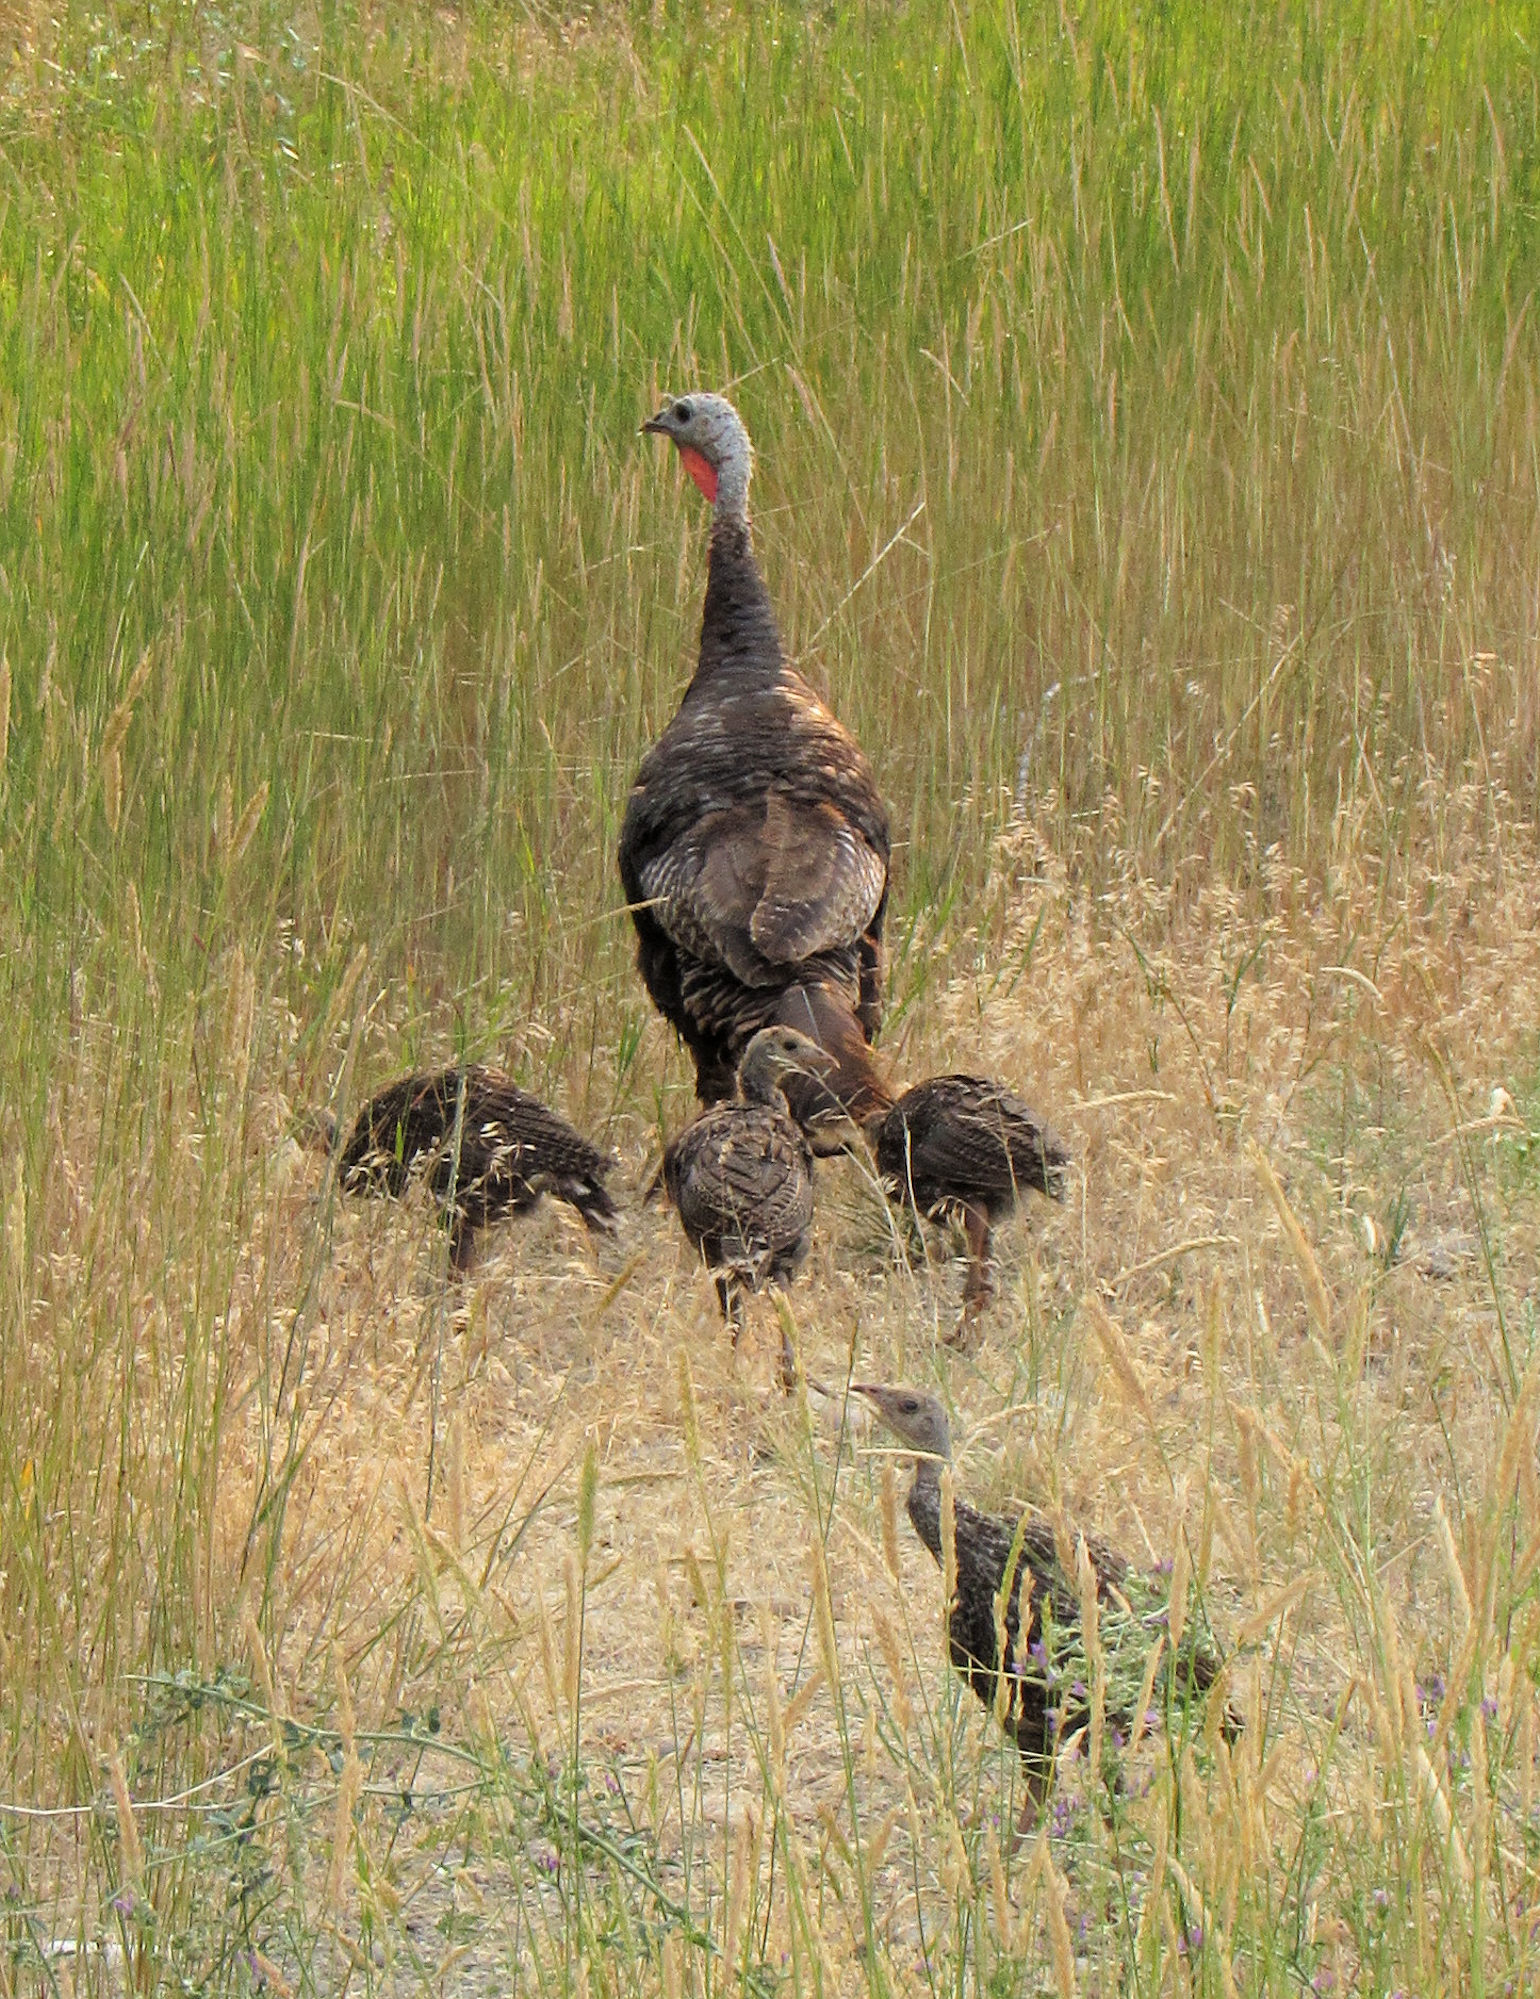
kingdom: Animalia
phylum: Chordata
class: Aves
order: Galliformes
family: Phasianidae
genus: Meleagris
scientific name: Meleagris gallopavo
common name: Wild turkey
